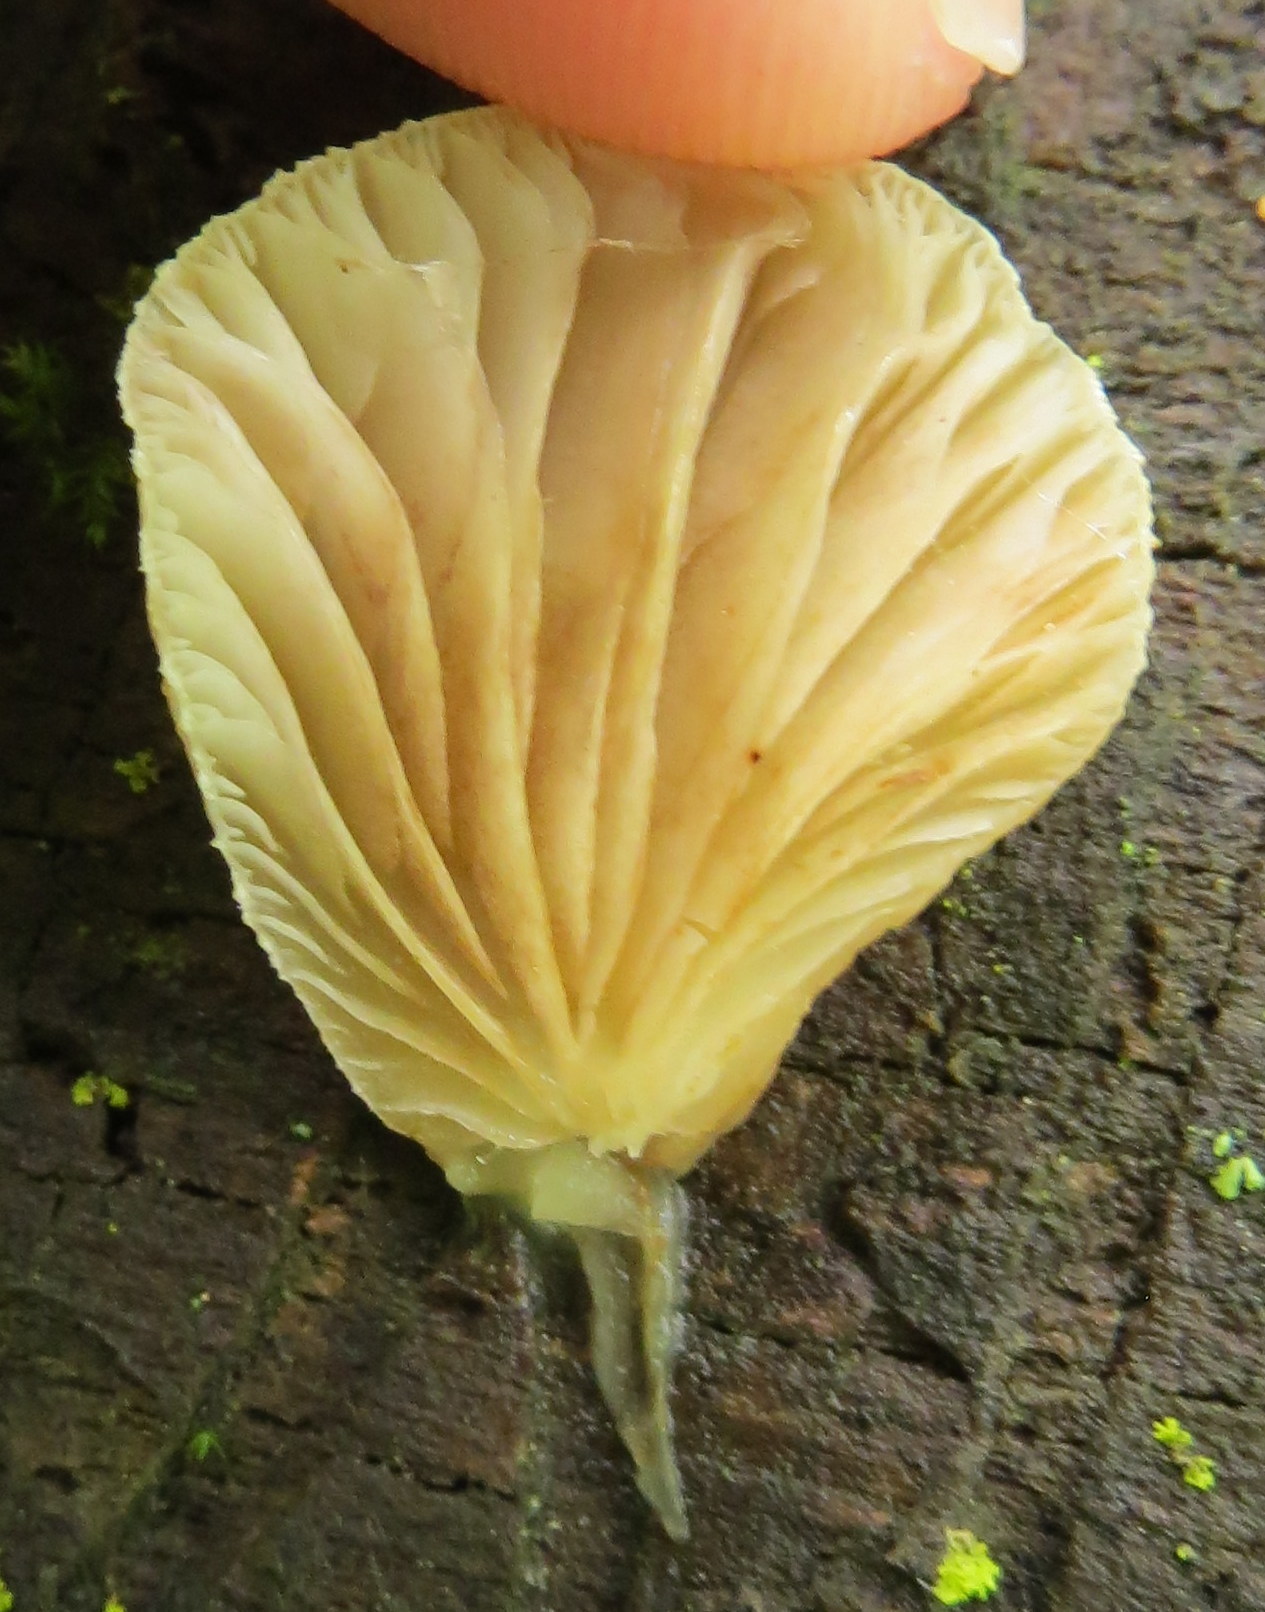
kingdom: Fungi
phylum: Basidiomycota
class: Agaricomycetes
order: Agaricales
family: Crepidotaceae
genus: Crepidotus
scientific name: Crepidotus mollis
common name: Peeling oysterling
